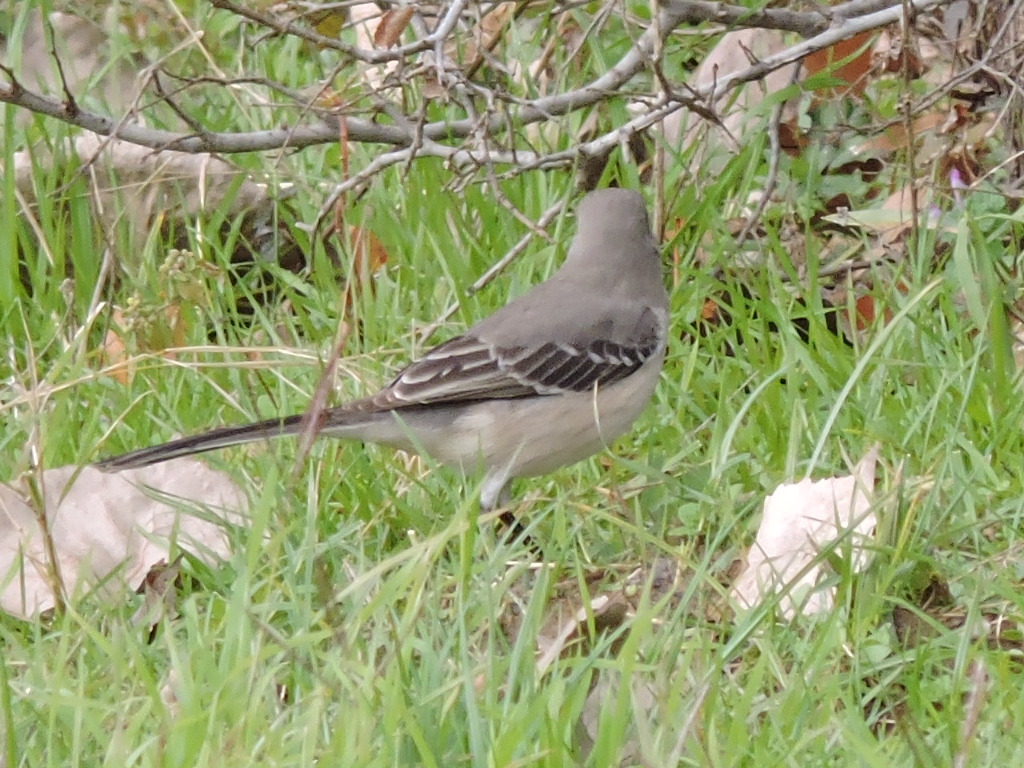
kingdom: Animalia
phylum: Chordata
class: Aves
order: Passeriformes
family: Mimidae
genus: Mimus
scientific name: Mimus polyglottos
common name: Northern mockingbird
